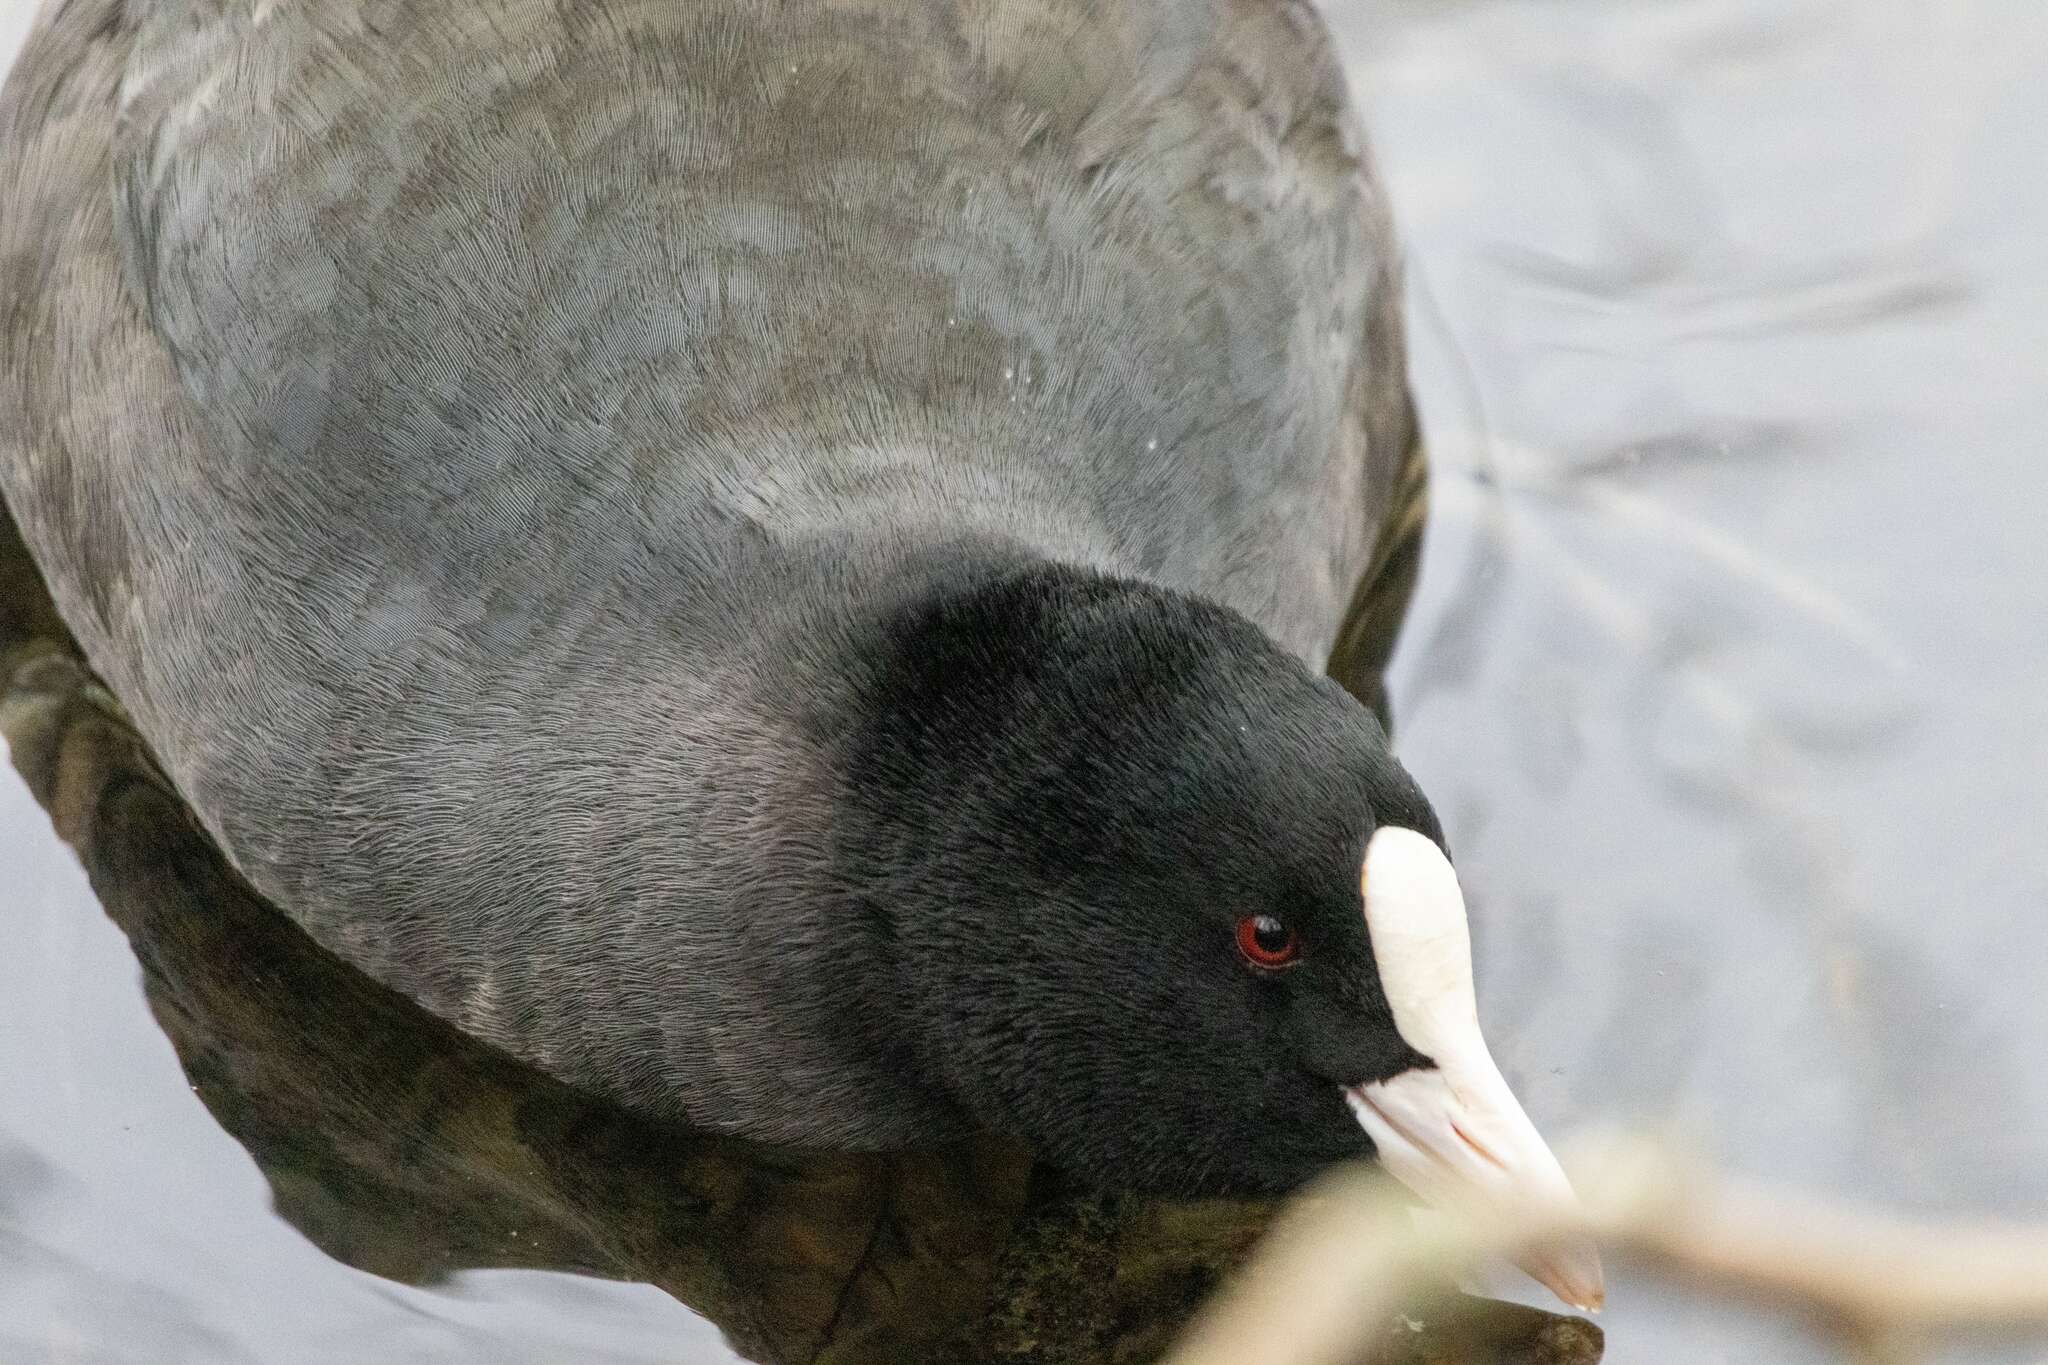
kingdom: Animalia
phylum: Chordata
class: Aves
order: Gruiformes
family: Rallidae
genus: Fulica
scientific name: Fulica atra
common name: Eurasian coot
